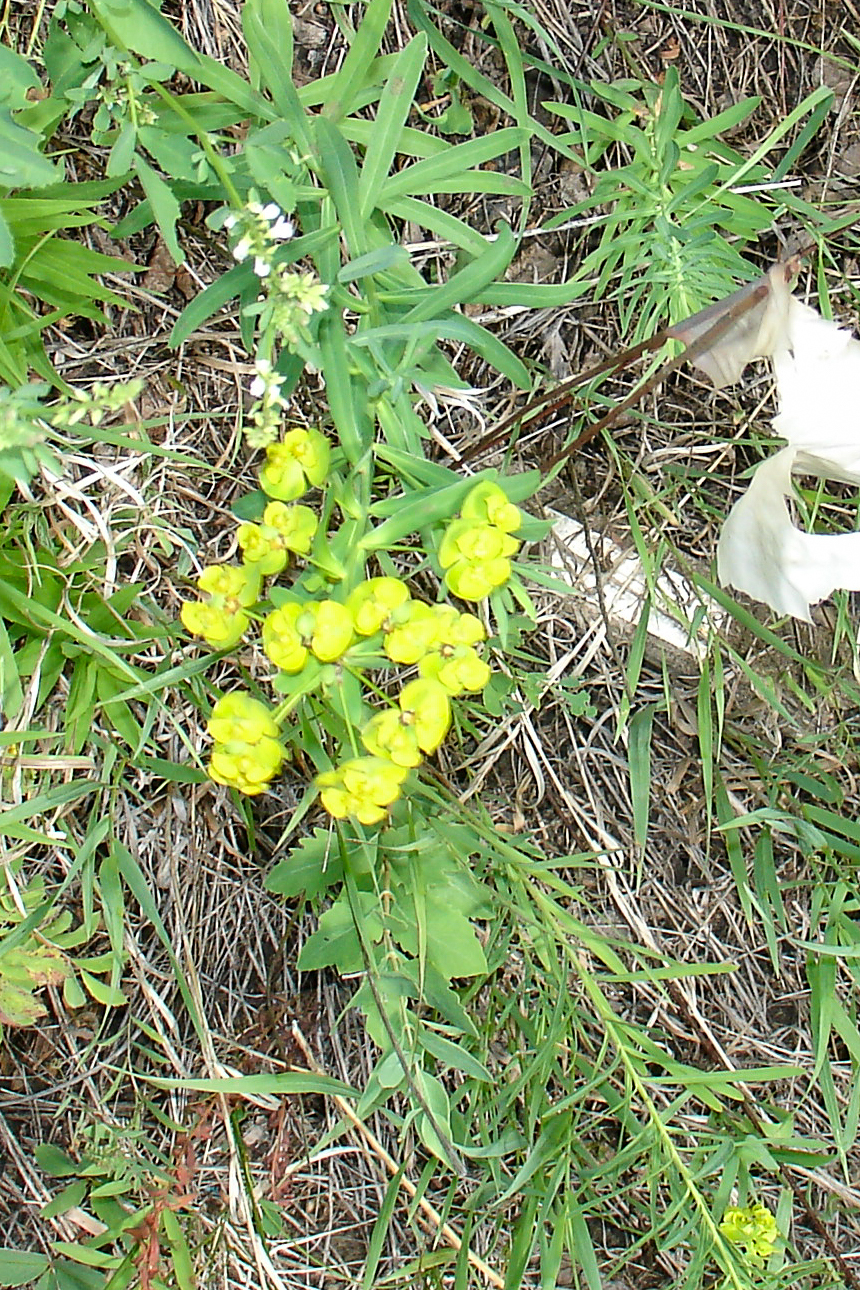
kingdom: Plantae
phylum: Tracheophyta
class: Magnoliopsida
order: Malpighiales
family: Euphorbiaceae
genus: Euphorbia
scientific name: Euphorbia virgata
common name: Leafy spurge
